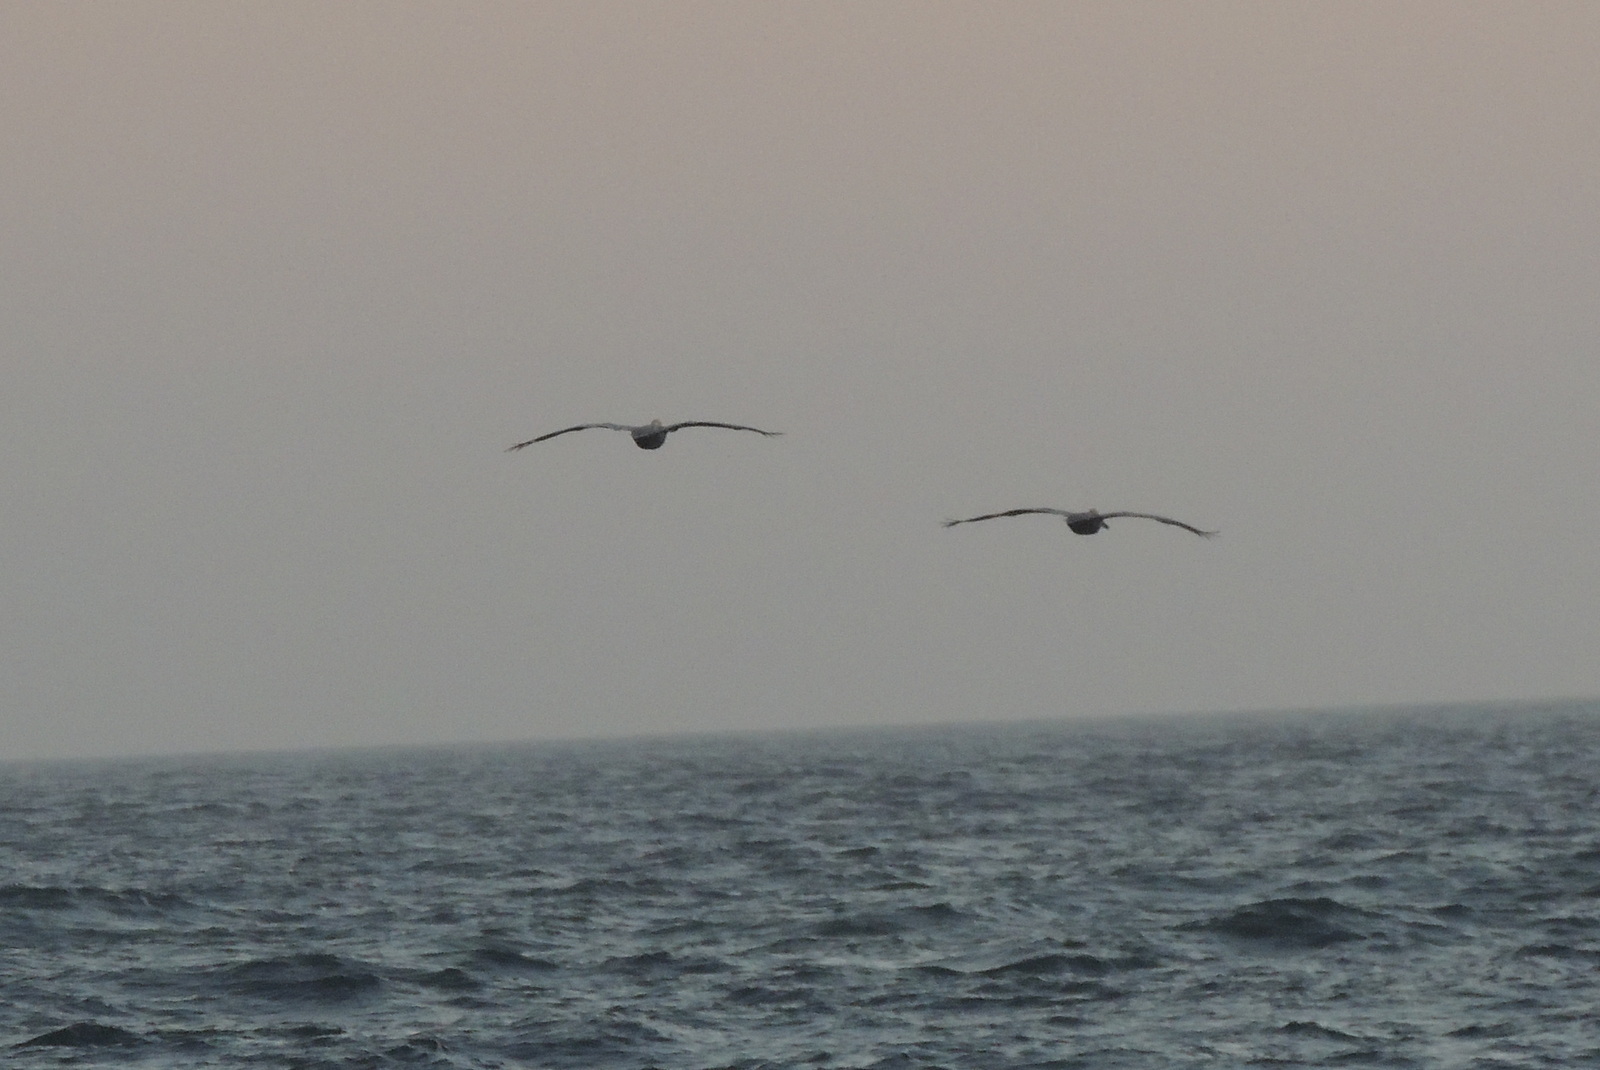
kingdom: Animalia
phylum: Chordata
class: Aves
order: Pelecaniformes
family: Pelecanidae
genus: Pelecanus
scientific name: Pelecanus occidentalis
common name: Brown pelican
